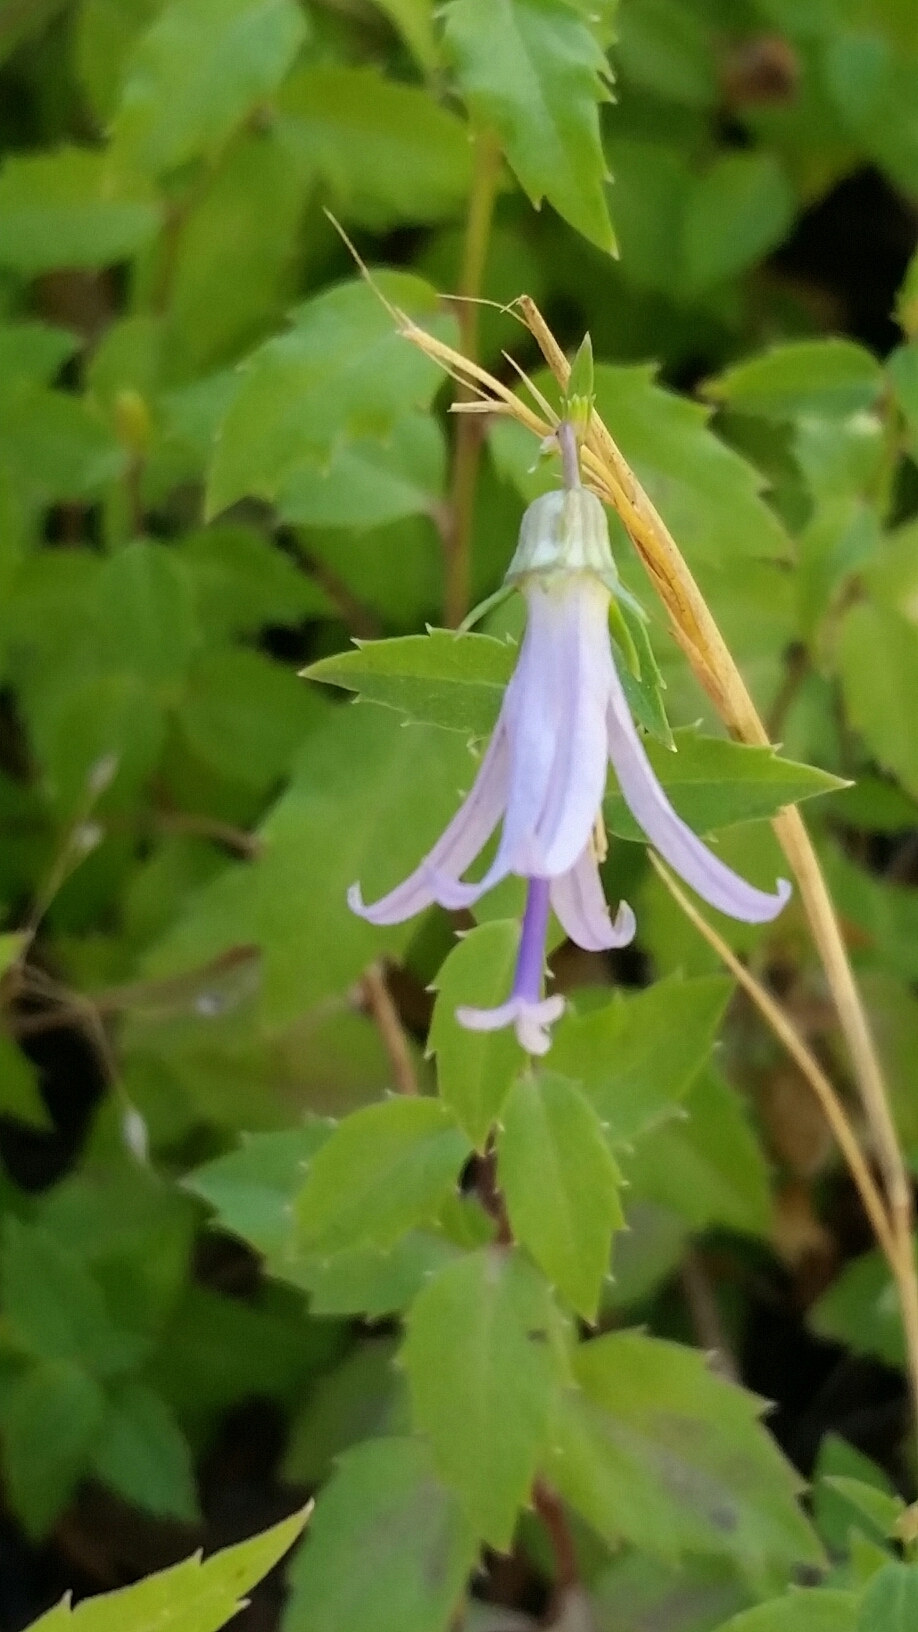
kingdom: Plantae
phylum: Tracheophyta
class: Magnoliopsida
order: Asterales
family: Campanulaceae
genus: Smithiastrum
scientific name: Smithiastrum prenanthoides
